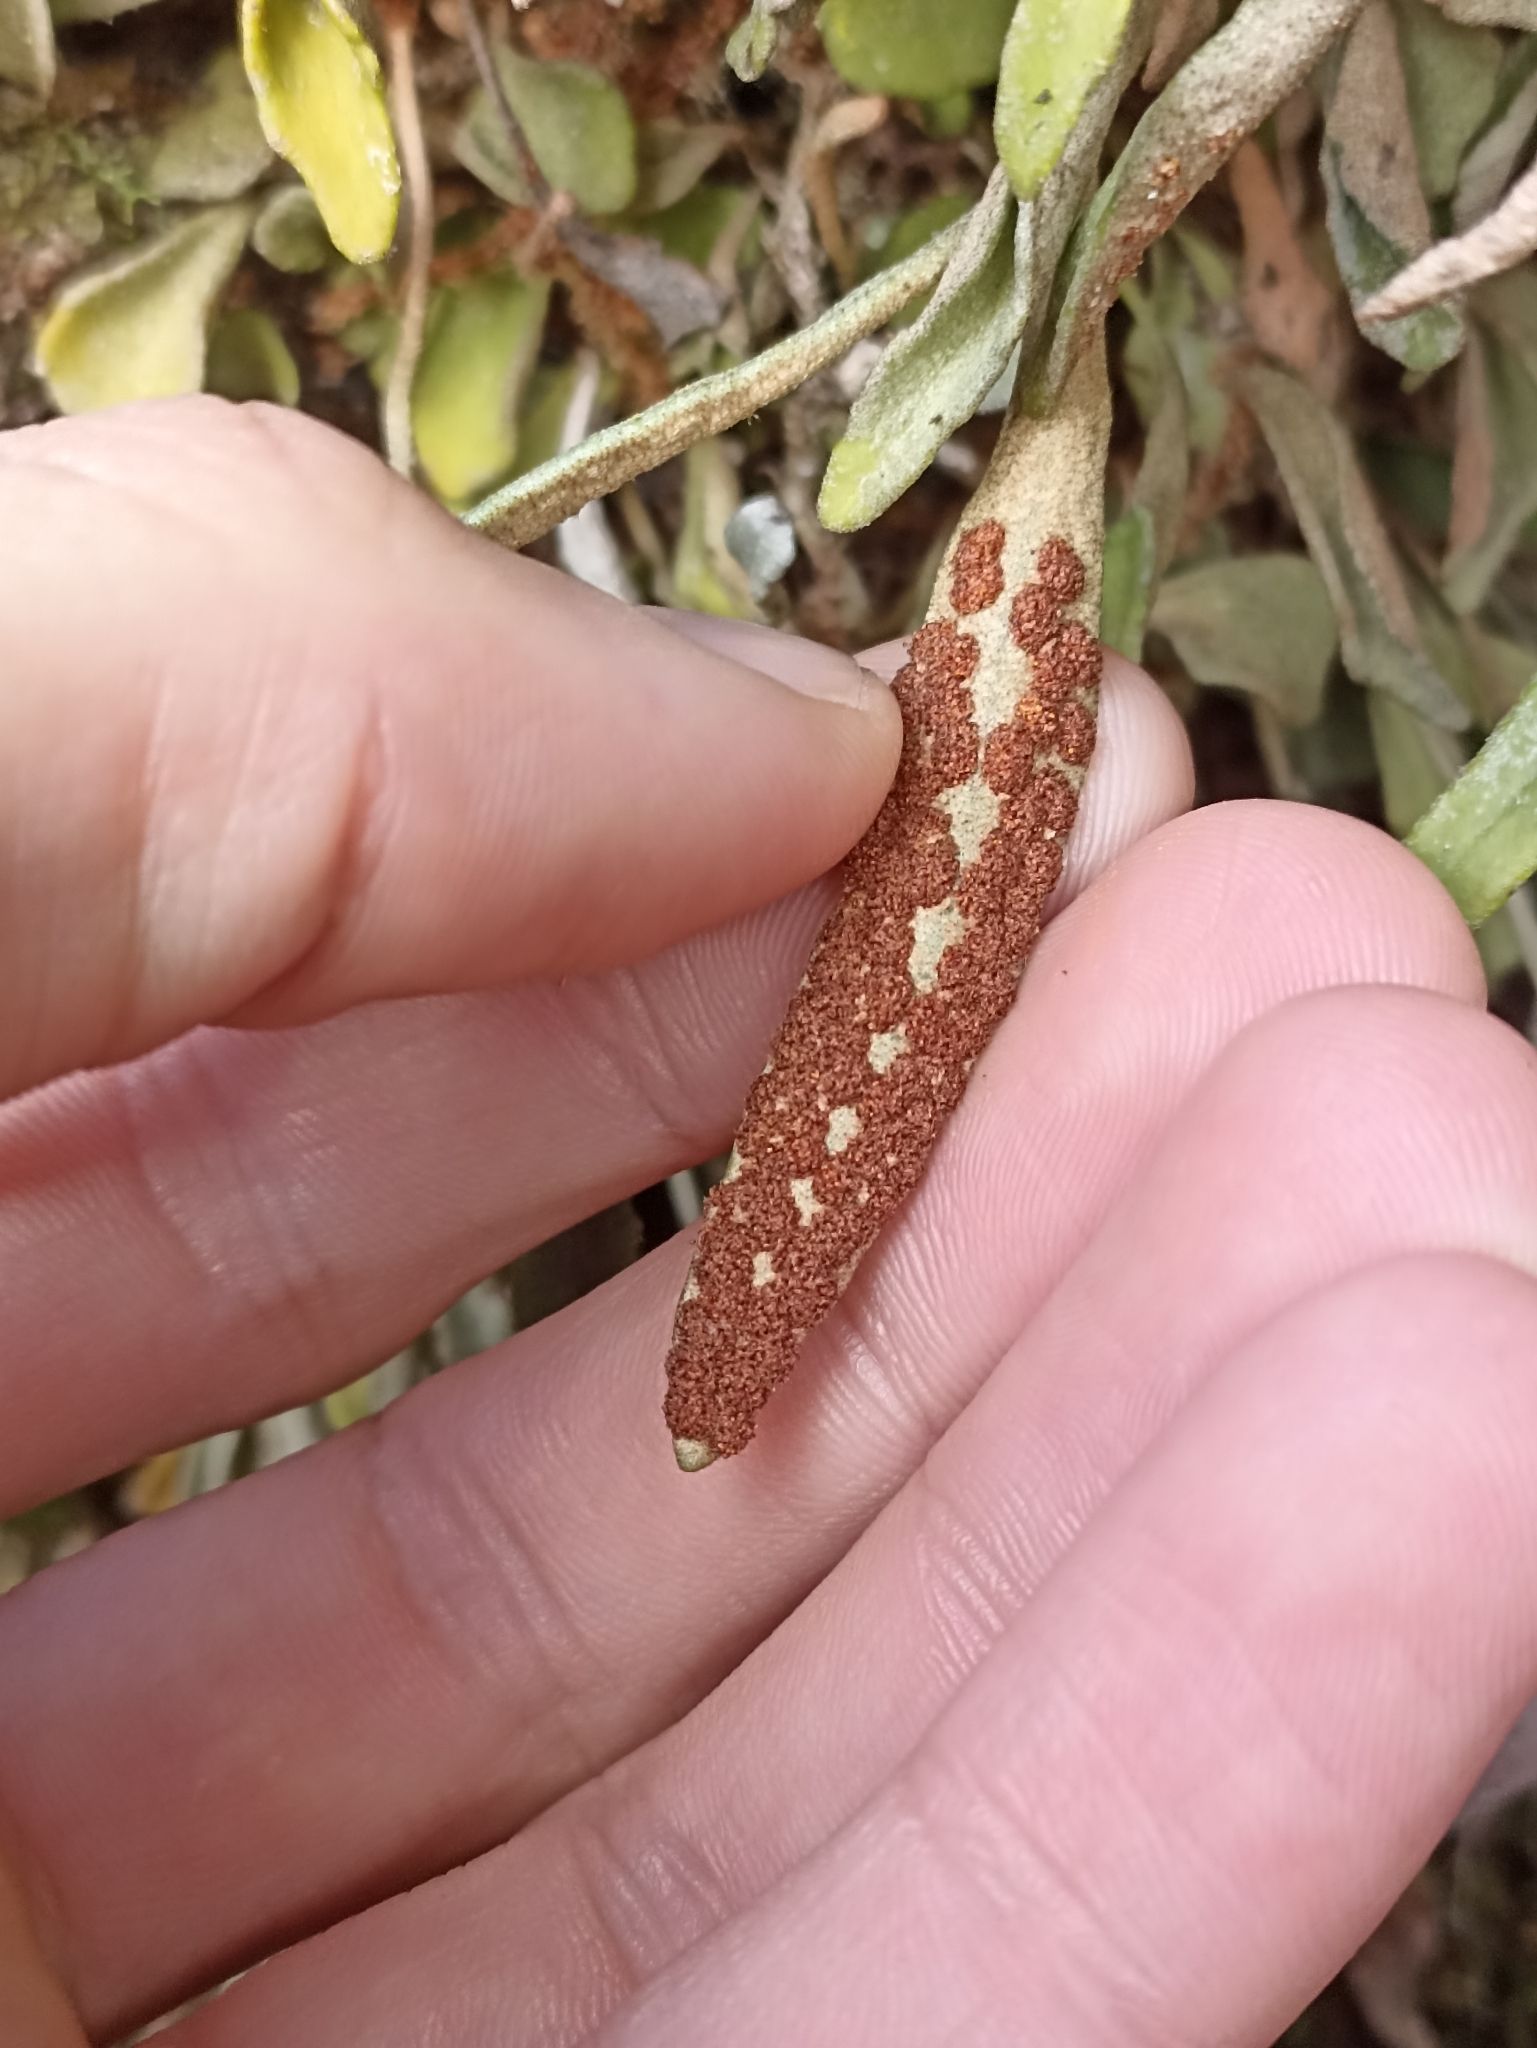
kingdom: Plantae
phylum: Tracheophyta
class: Polypodiopsida
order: Polypodiales
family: Polypodiaceae
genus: Pyrrosia
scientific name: Pyrrosia rupestris
